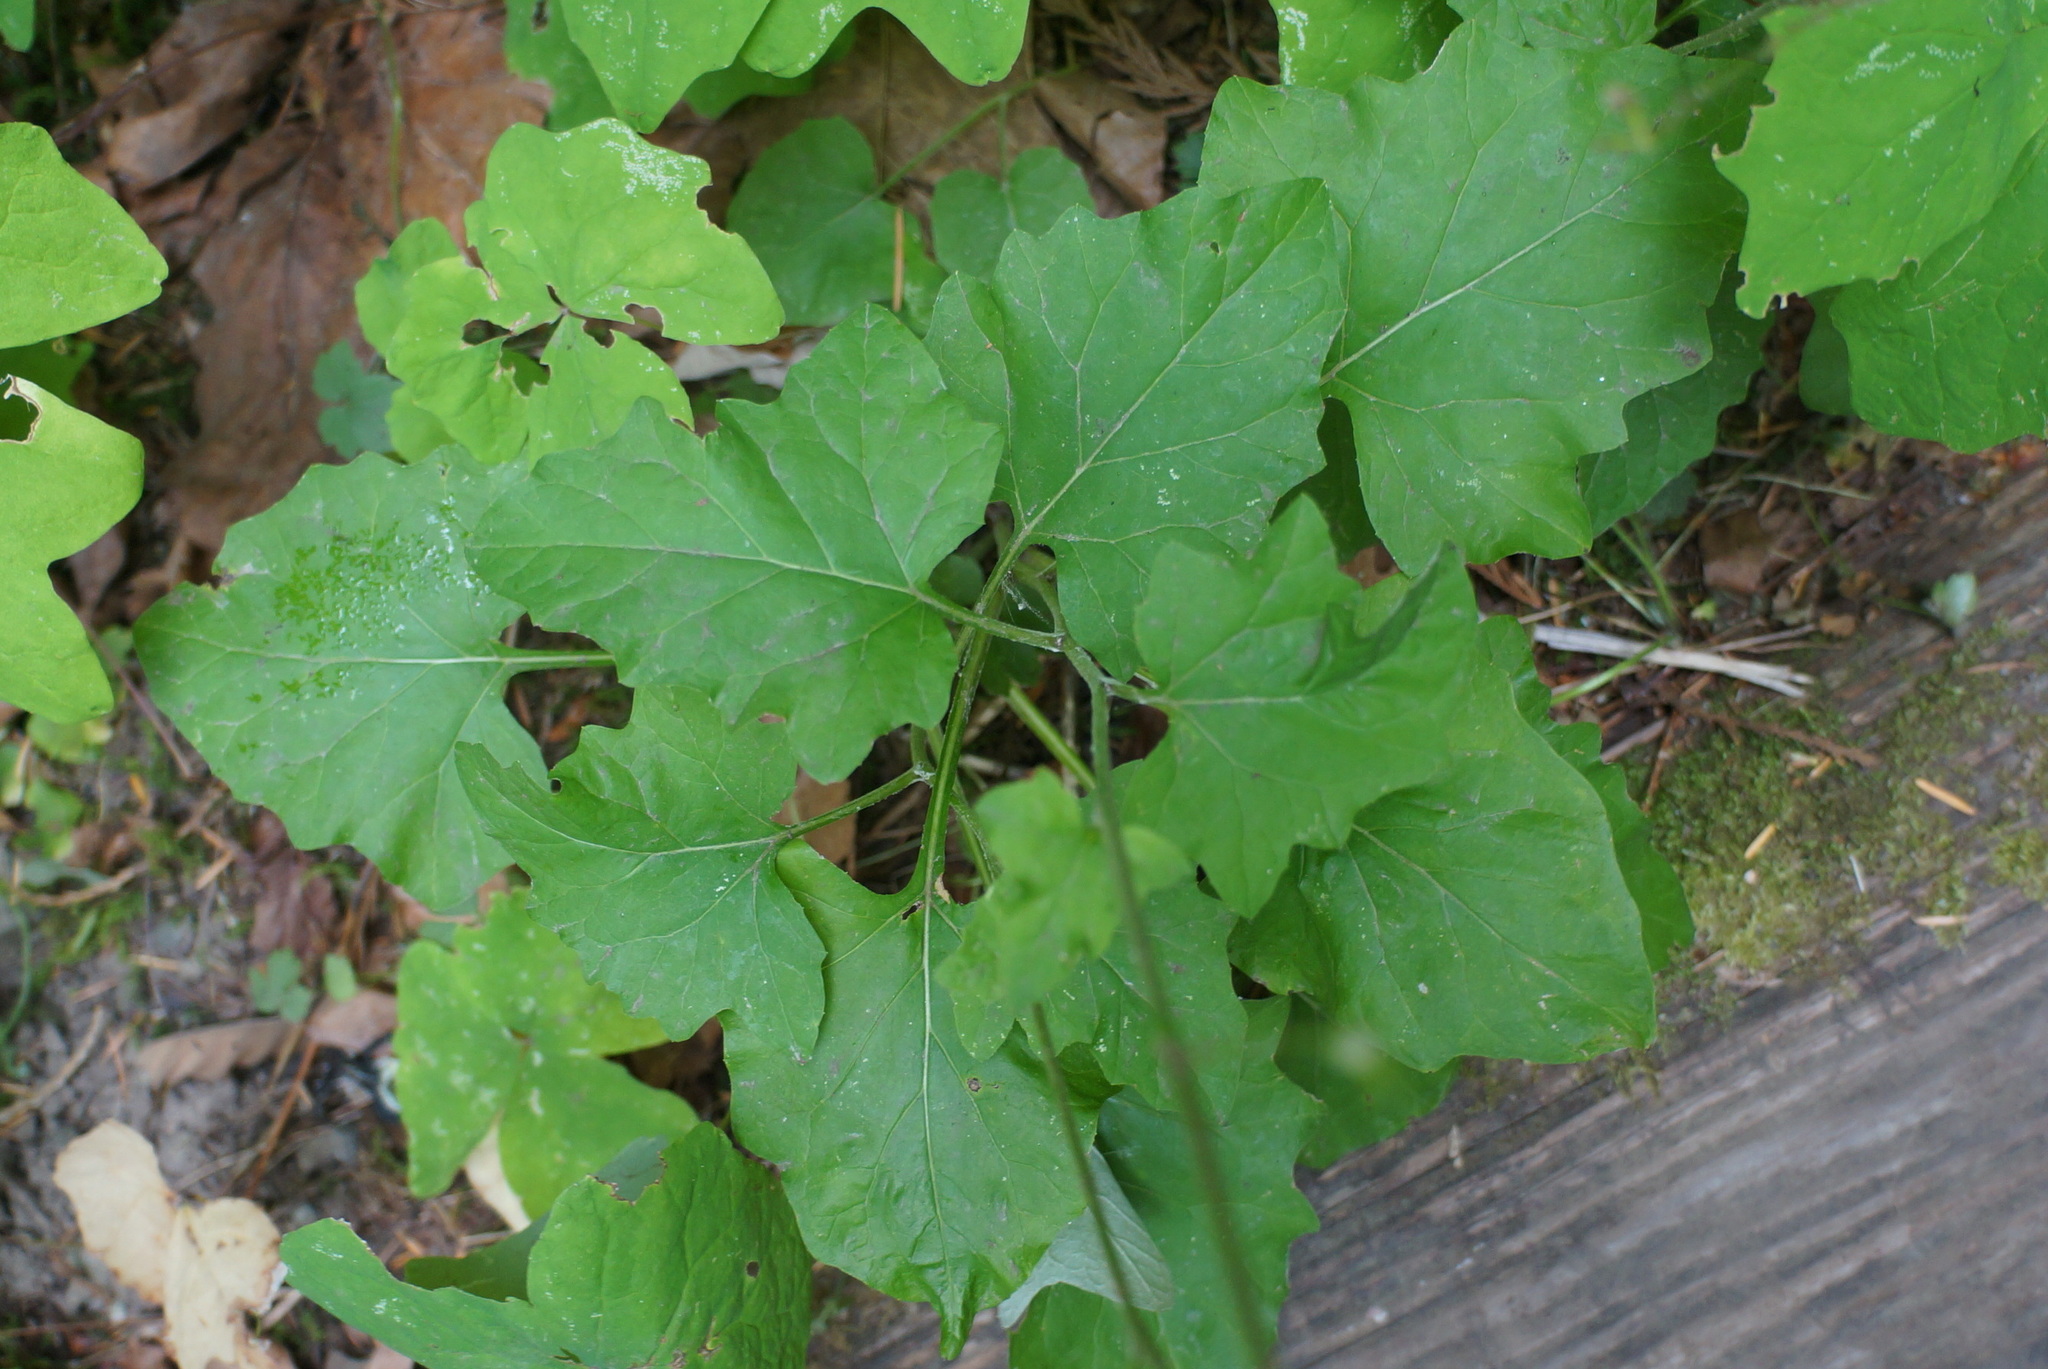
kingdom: Plantae
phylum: Tracheophyta
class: Magnoliopsida
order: Asterales
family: Asteraceae
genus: Adenocaulon
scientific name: Adenocaulon bicolor
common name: Trailplant
